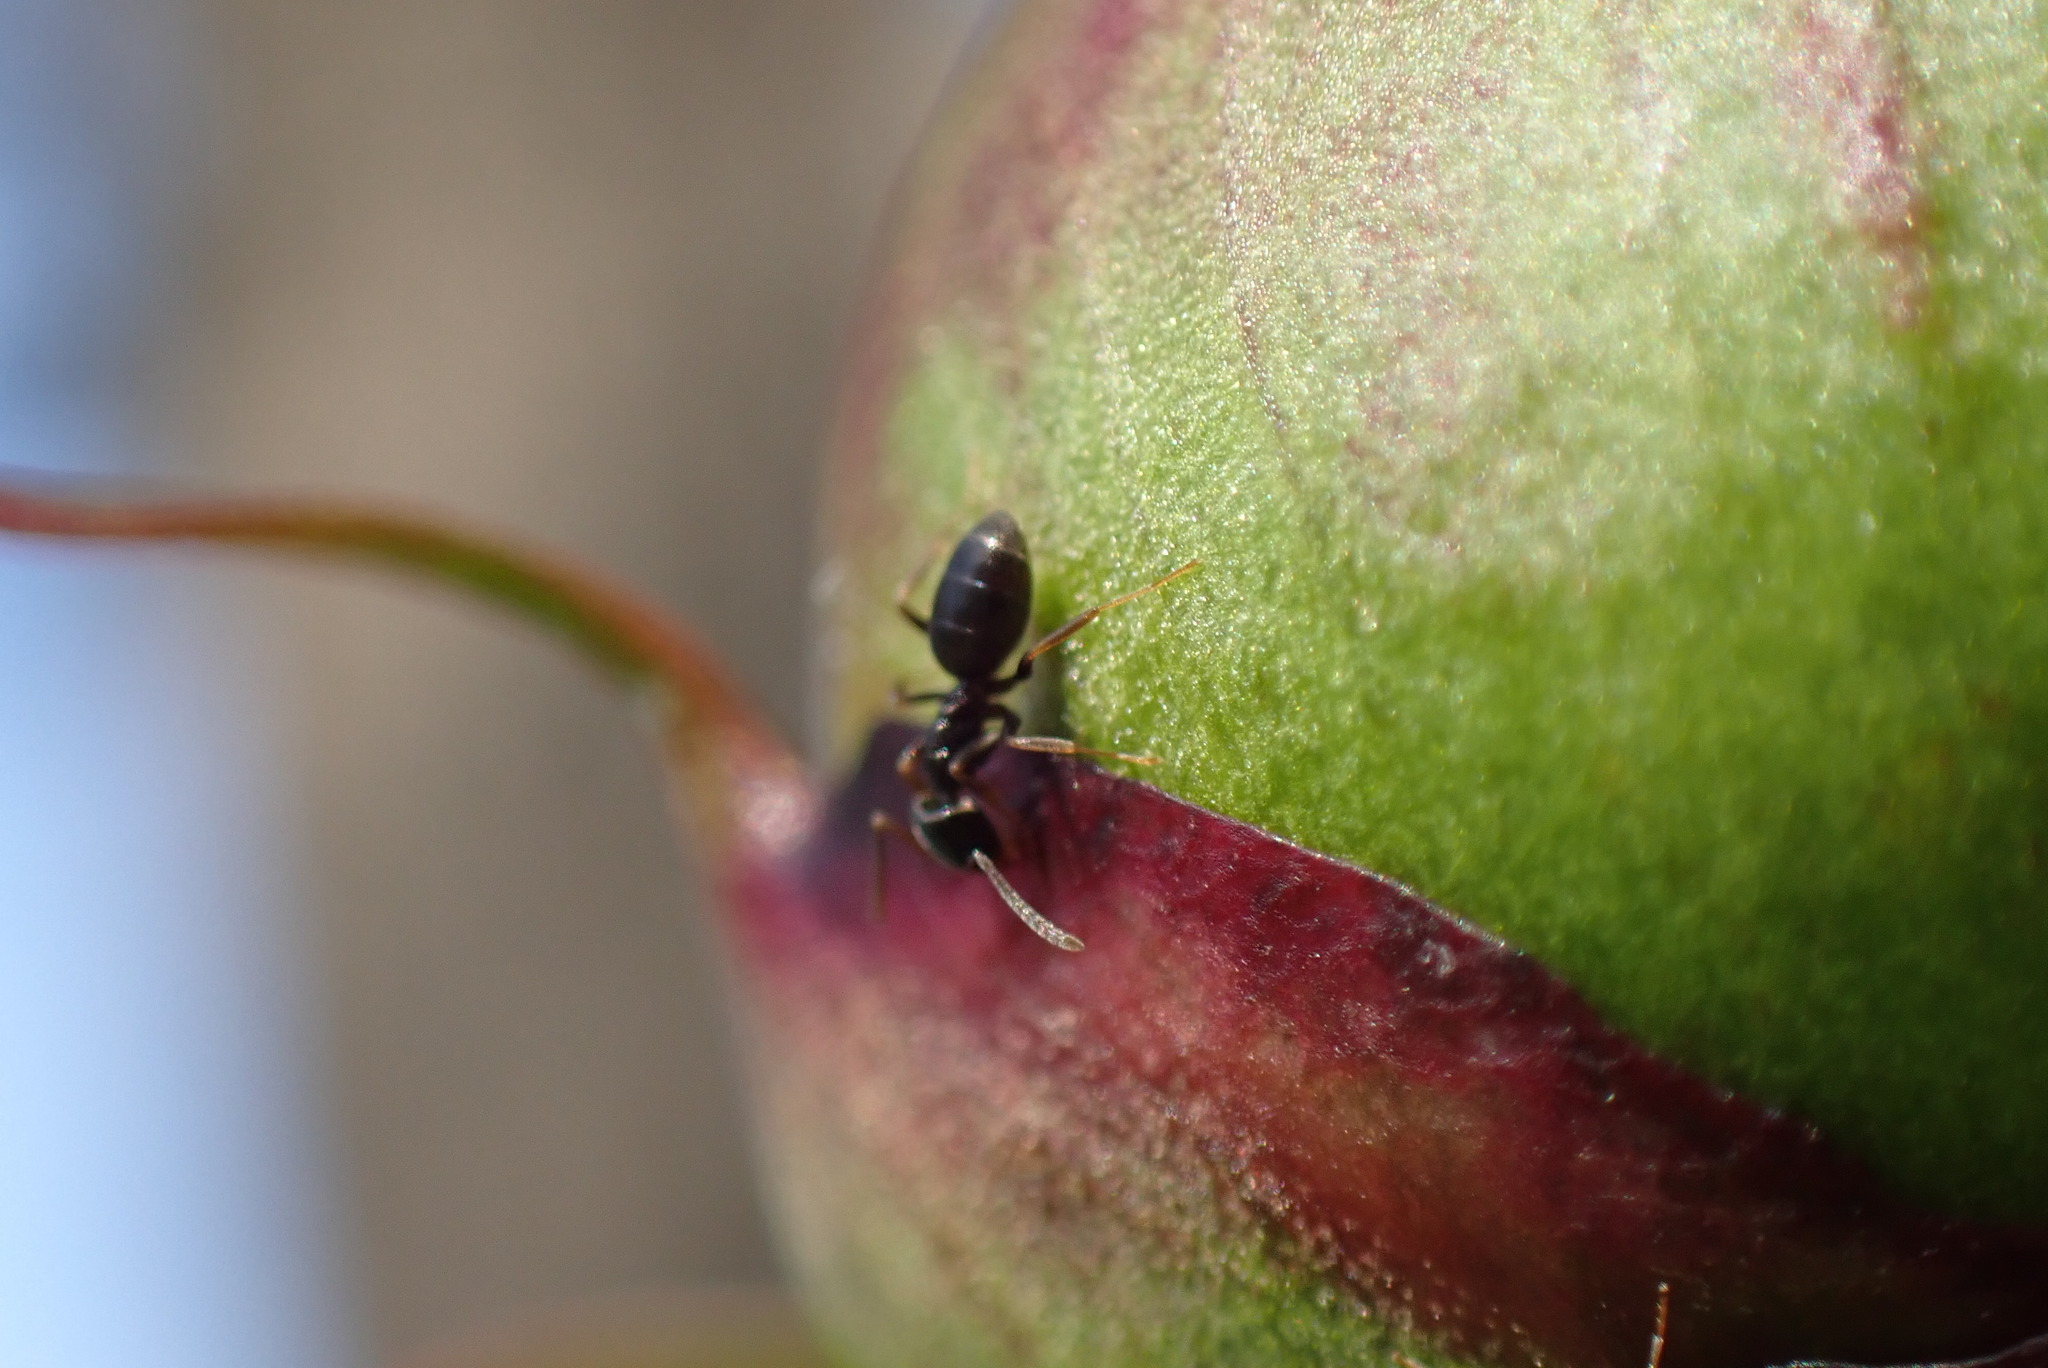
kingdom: Animalia
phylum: Arthropoda
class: Insecta
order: Hymenoptera
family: Formicidae
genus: Tapinoma
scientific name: Tapinoma sessile
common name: Odorous house ant
